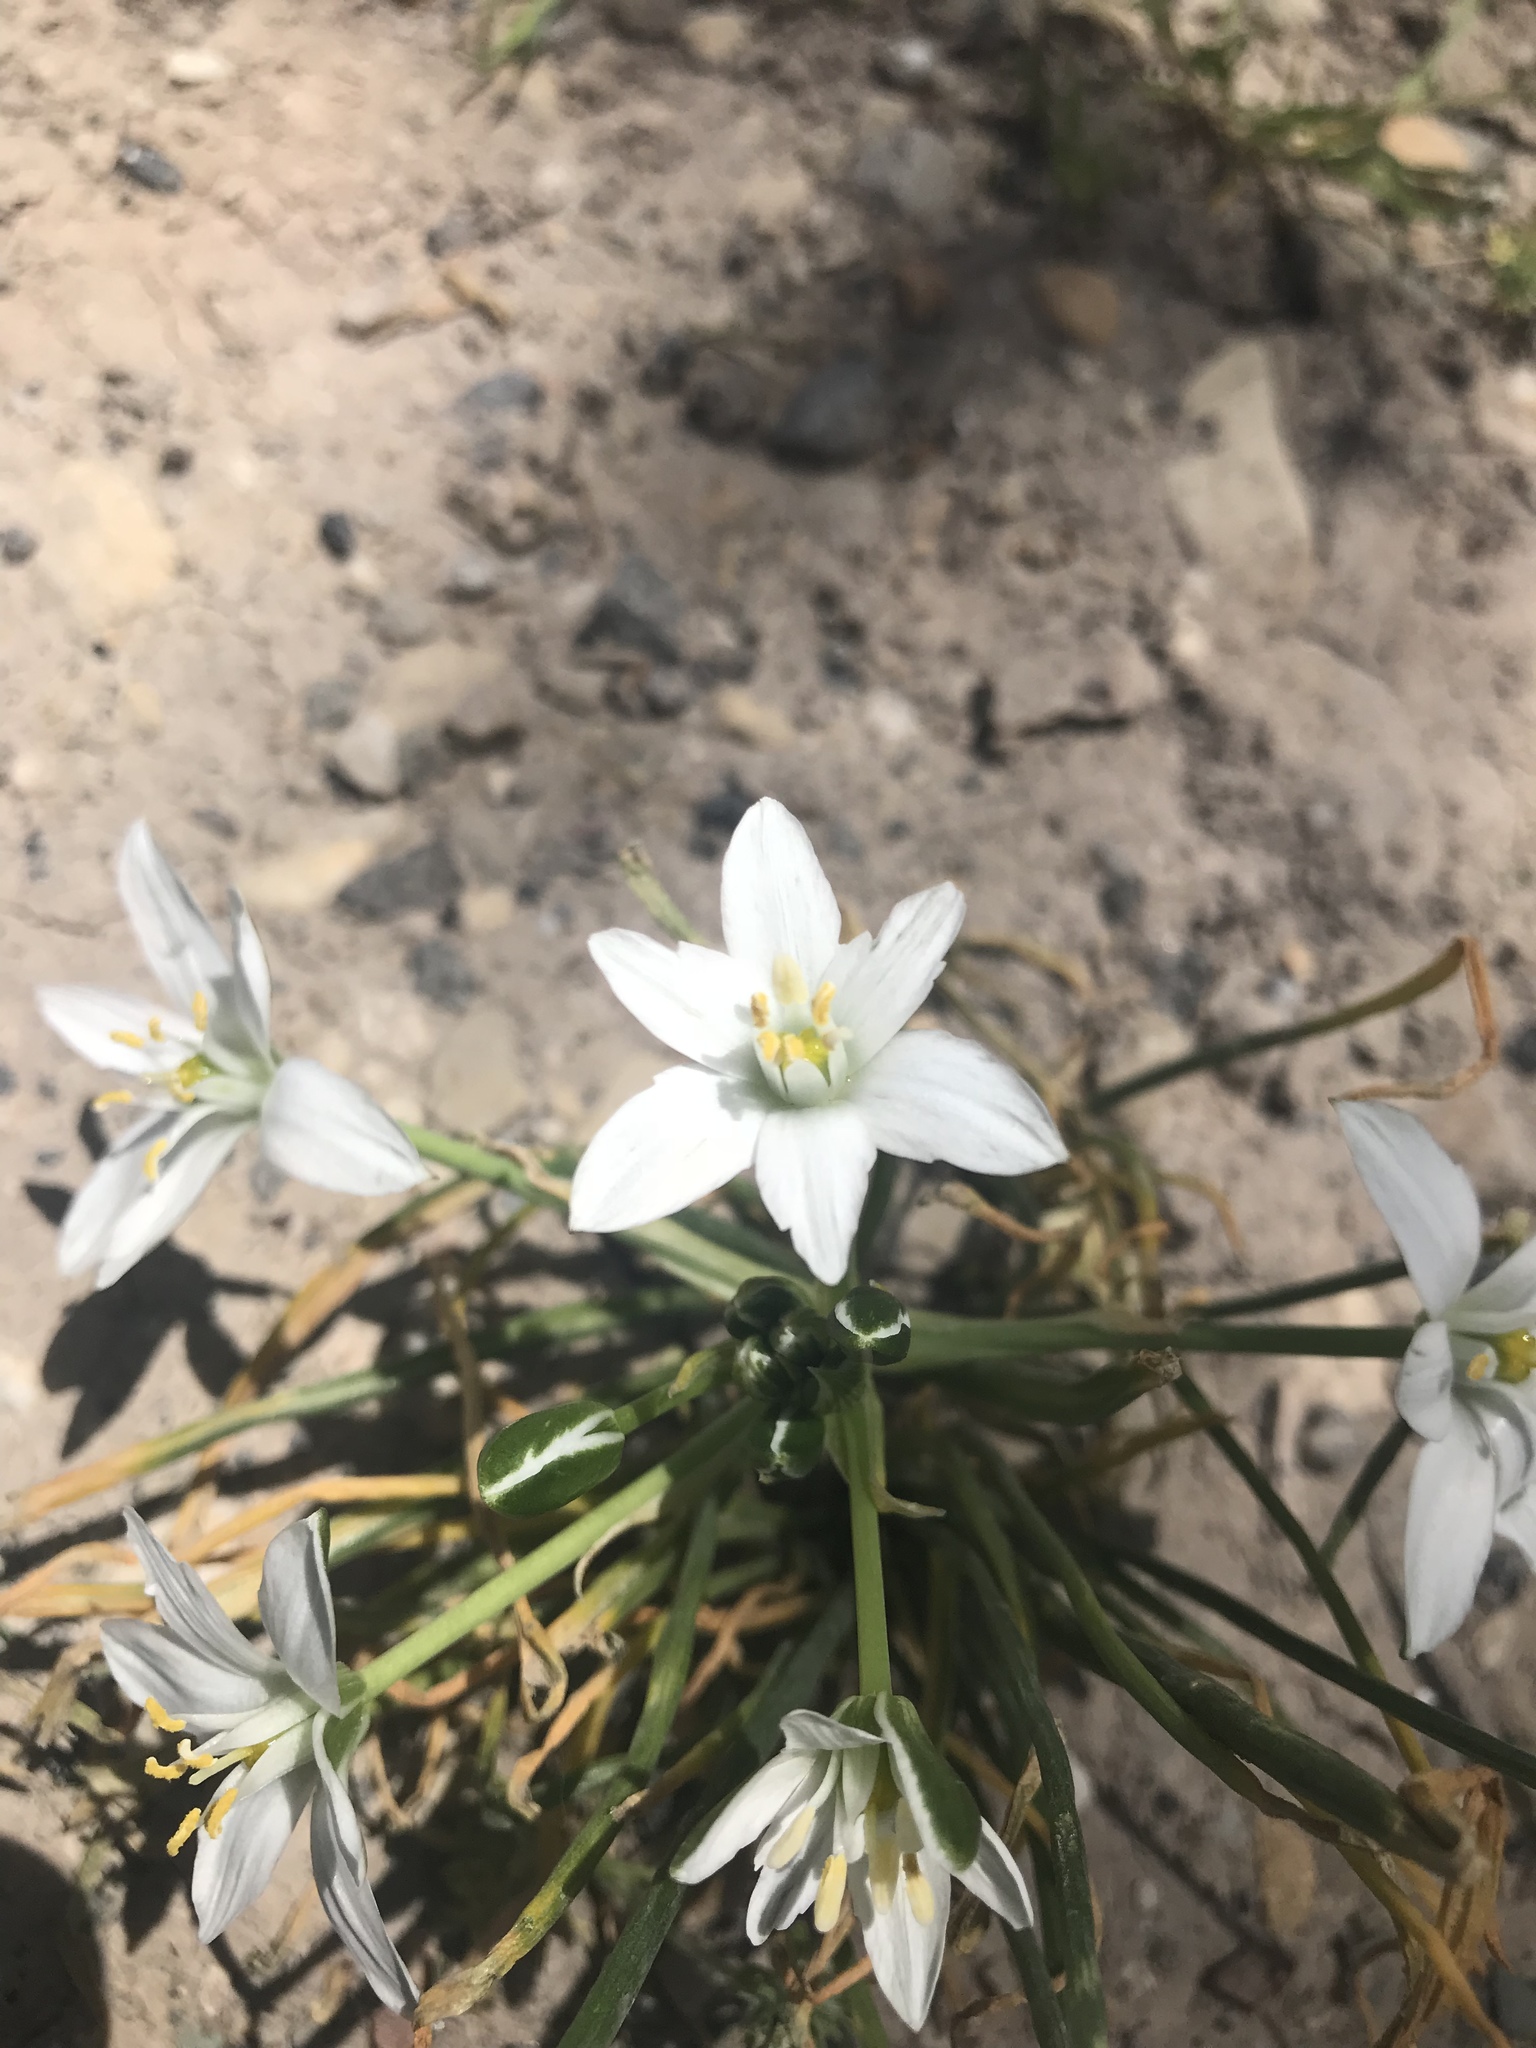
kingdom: Plantae
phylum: Tracheophyta
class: Liliopsida
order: Asparagales
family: Asparagaceae
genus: Ornithogalum
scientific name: Ornithogalum umbellatum
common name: Garden star-of-bethlehem
